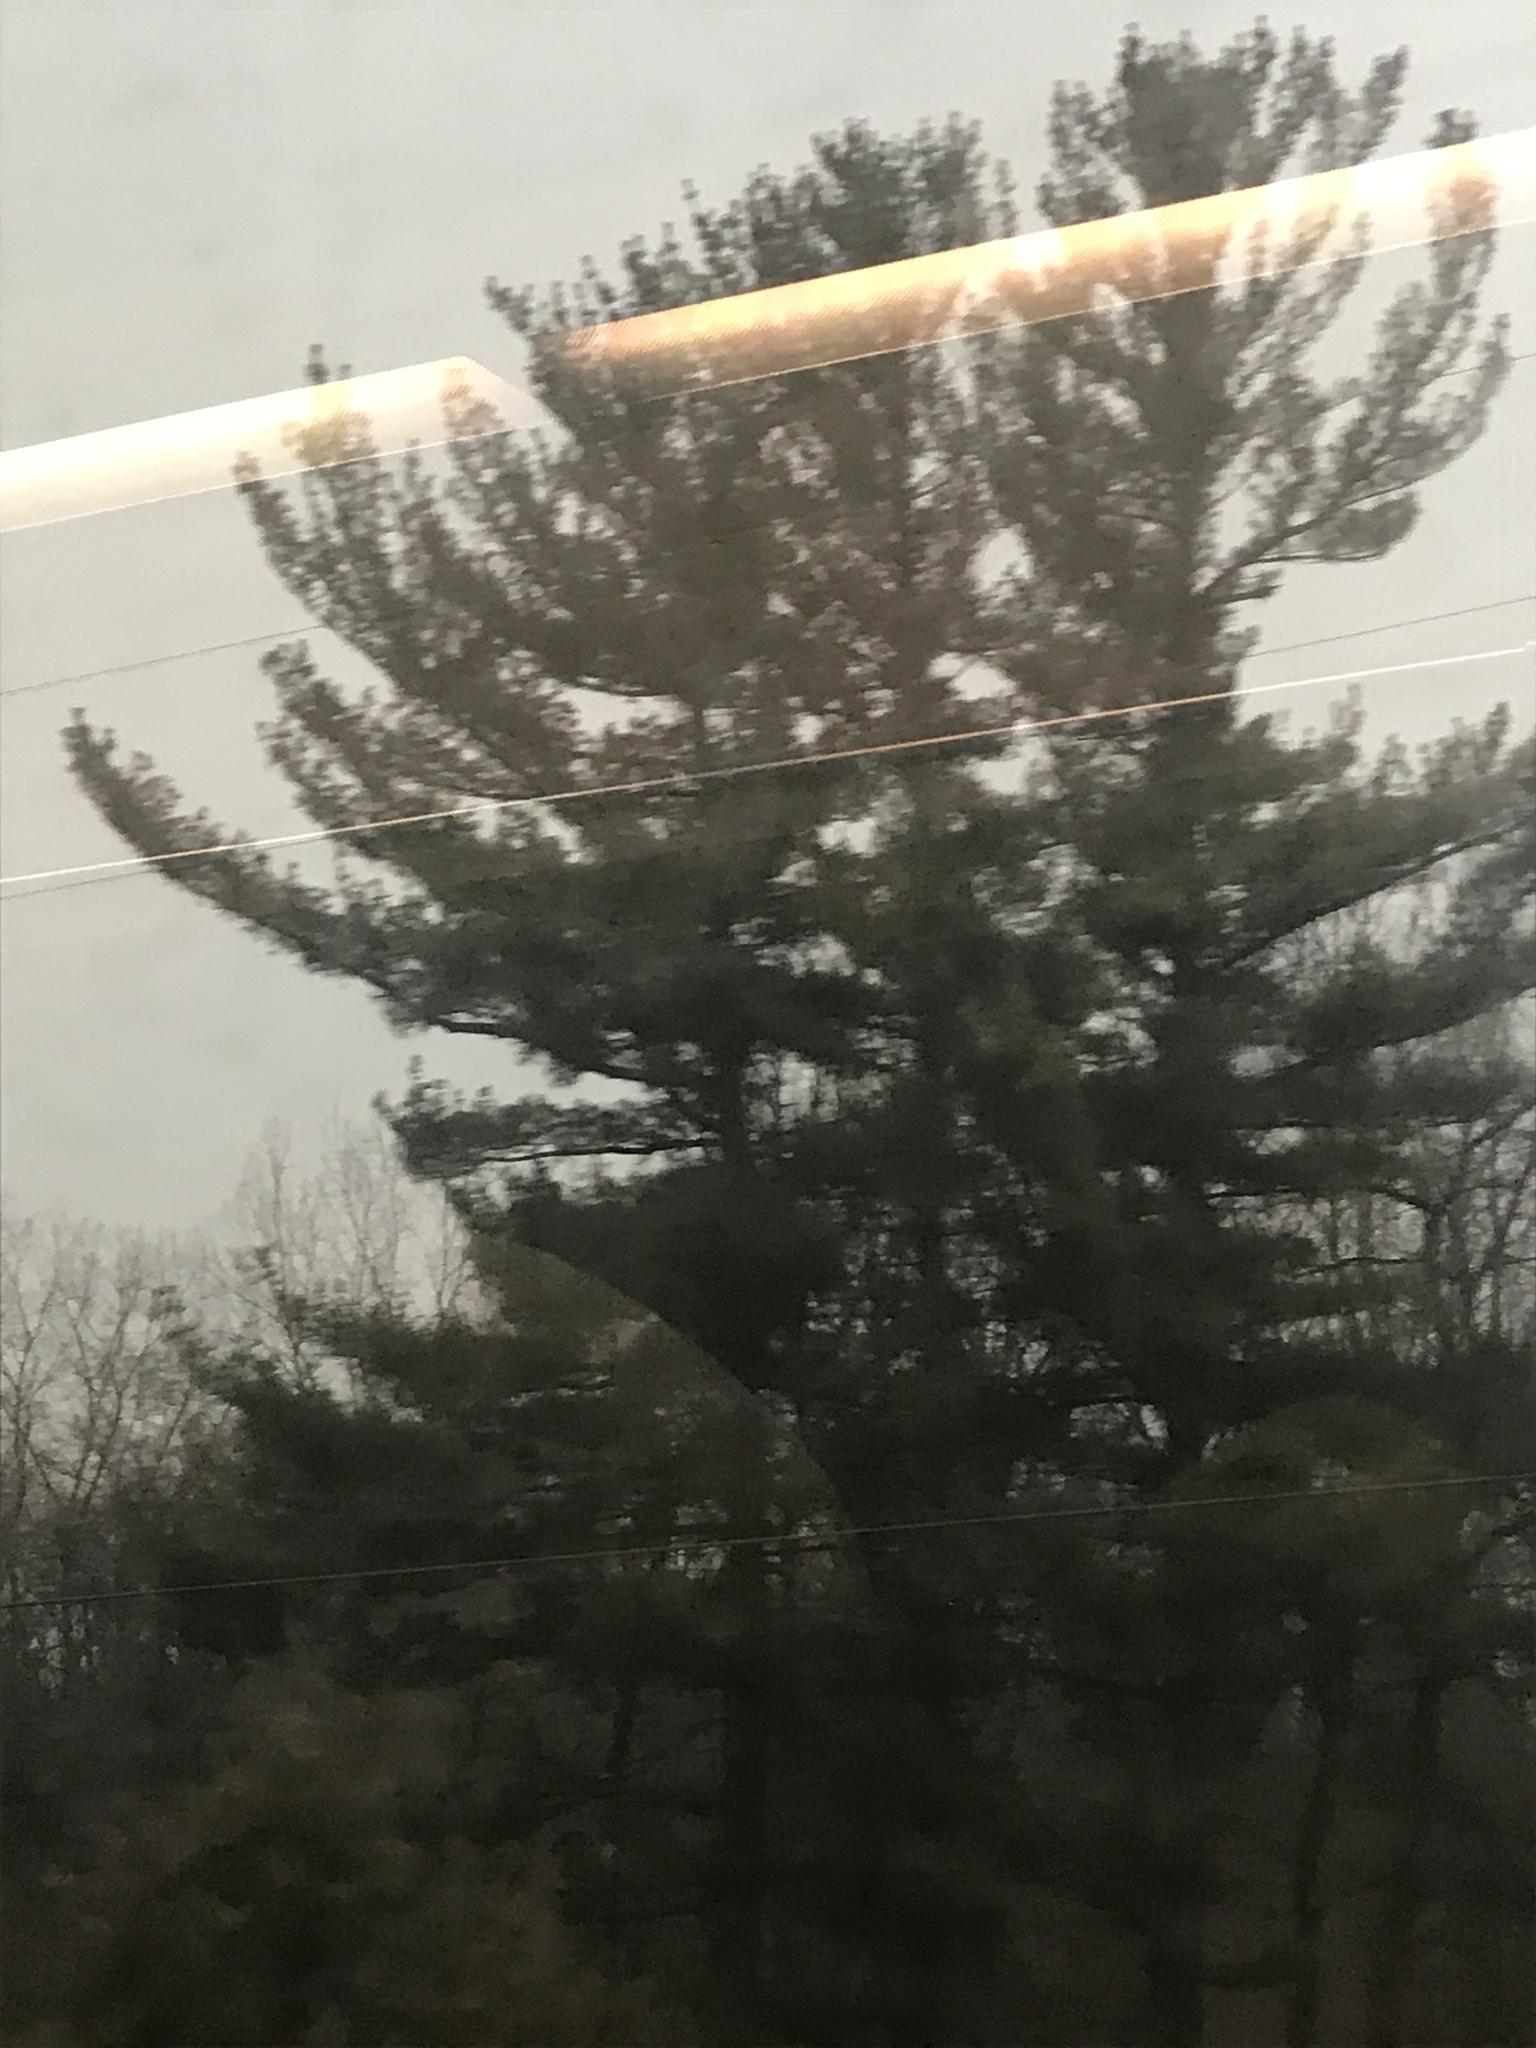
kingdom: Plantae
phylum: Tracheophyta
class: Pinopsida
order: Pinales
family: Pinaceae
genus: Pinus
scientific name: Pinus strobus
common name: Weymouth pine
